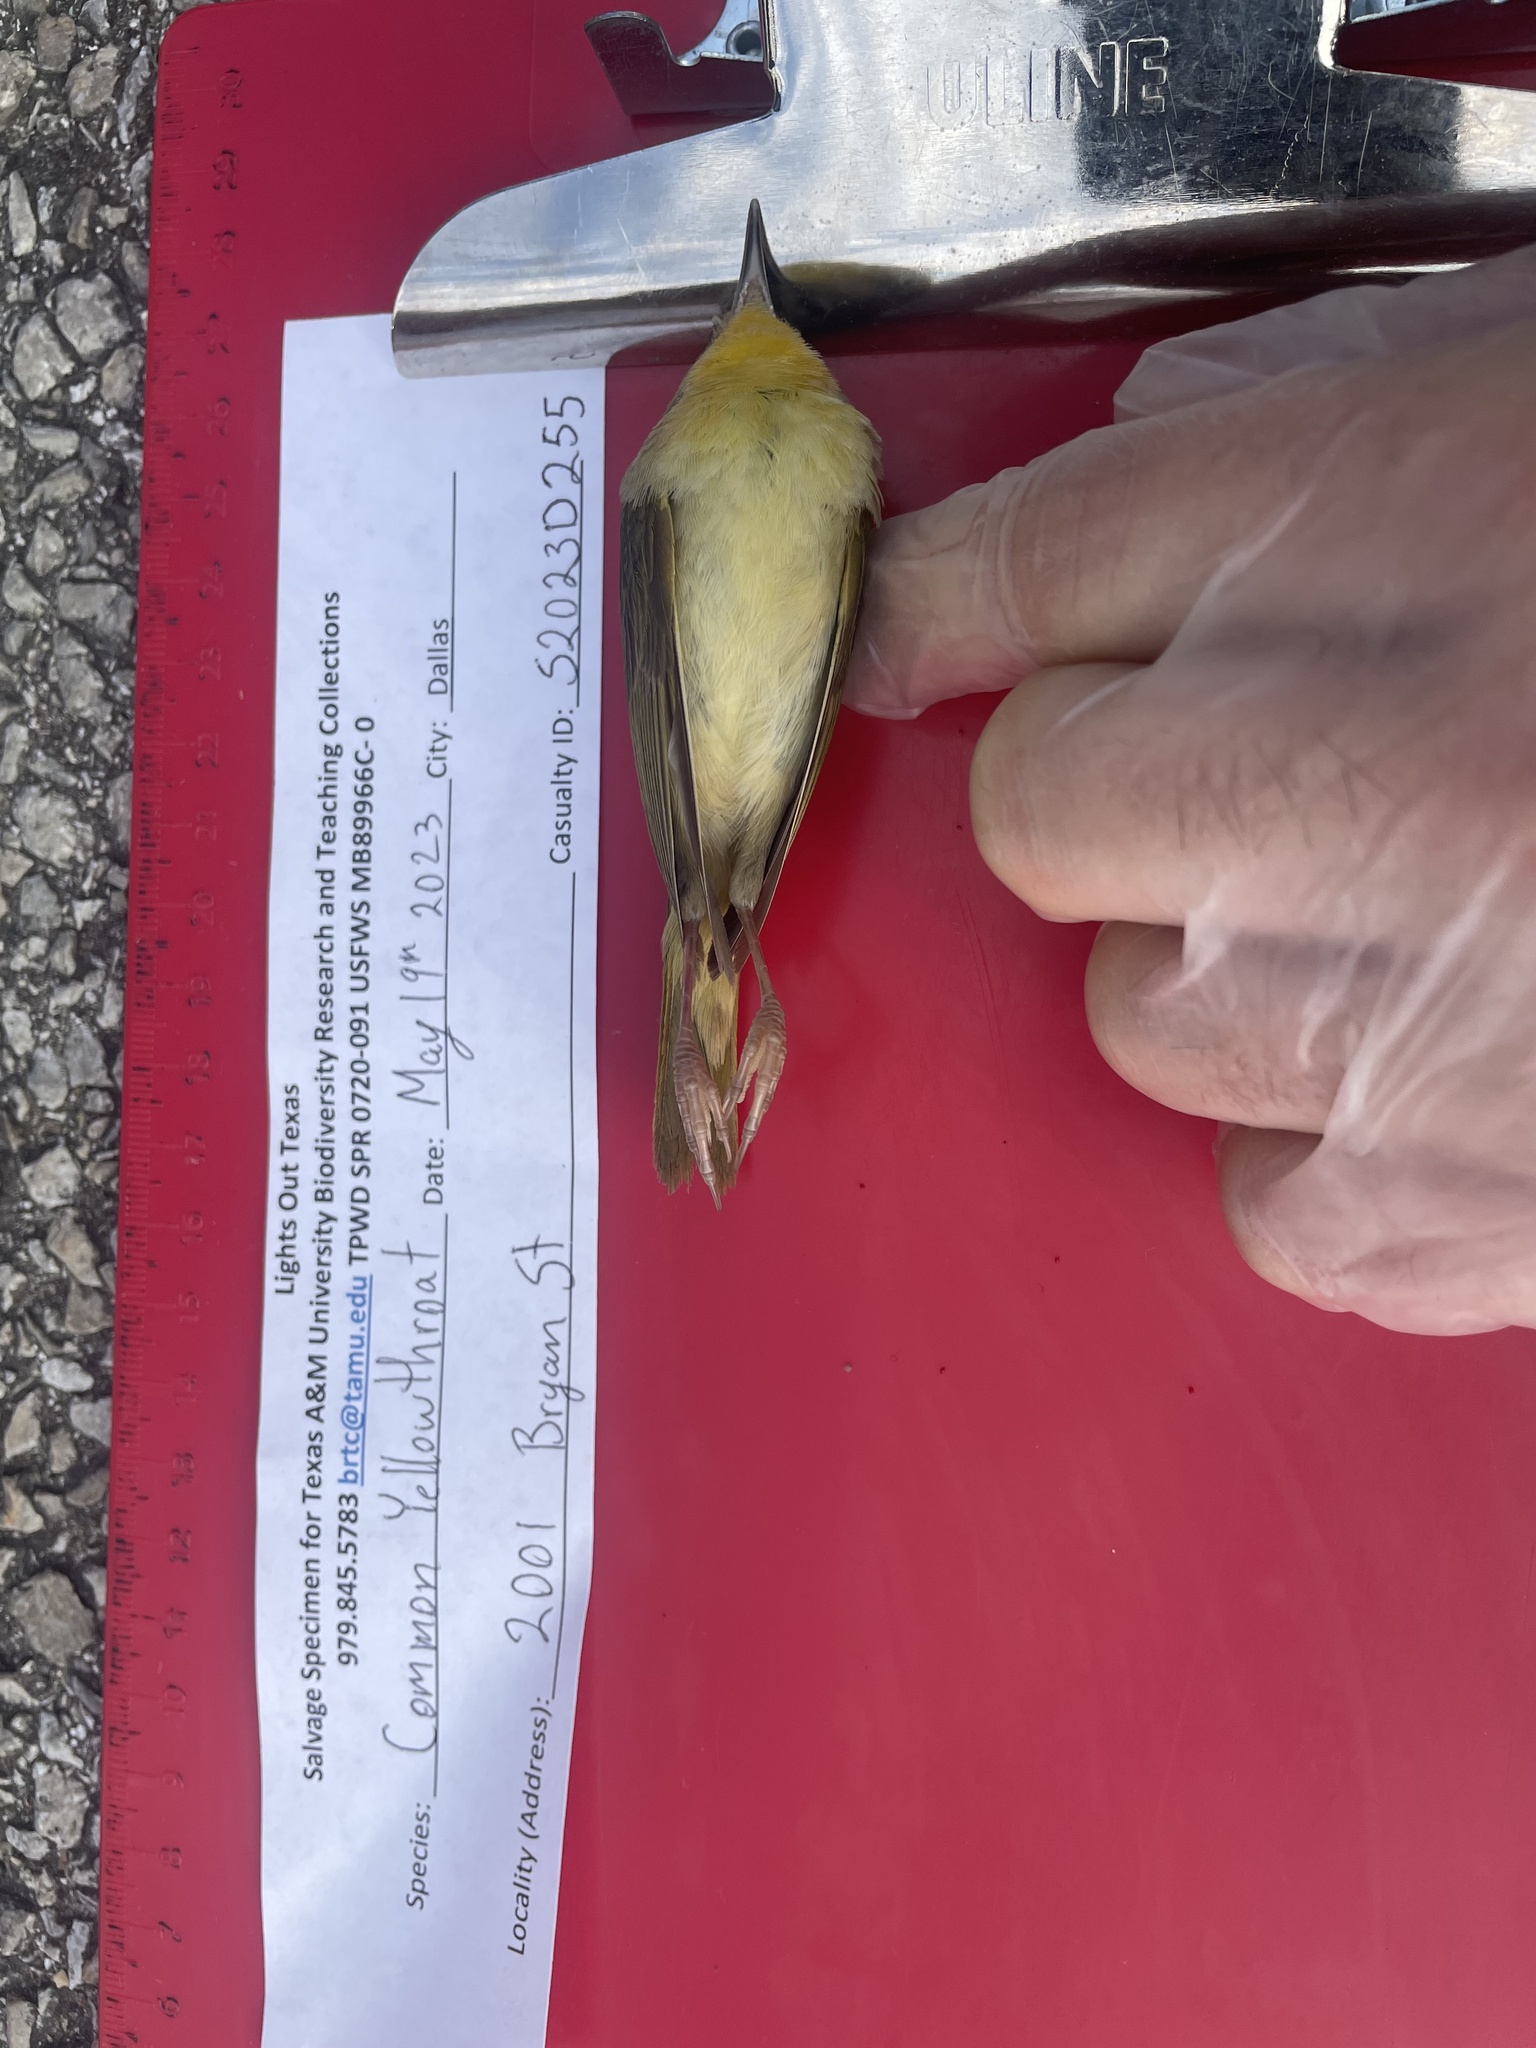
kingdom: Animalia
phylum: Chordata
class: Aves
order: Passeriformes
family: Parulidae
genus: Geothlypis
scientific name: Geothlypis trichas
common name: Common yellowthroat
